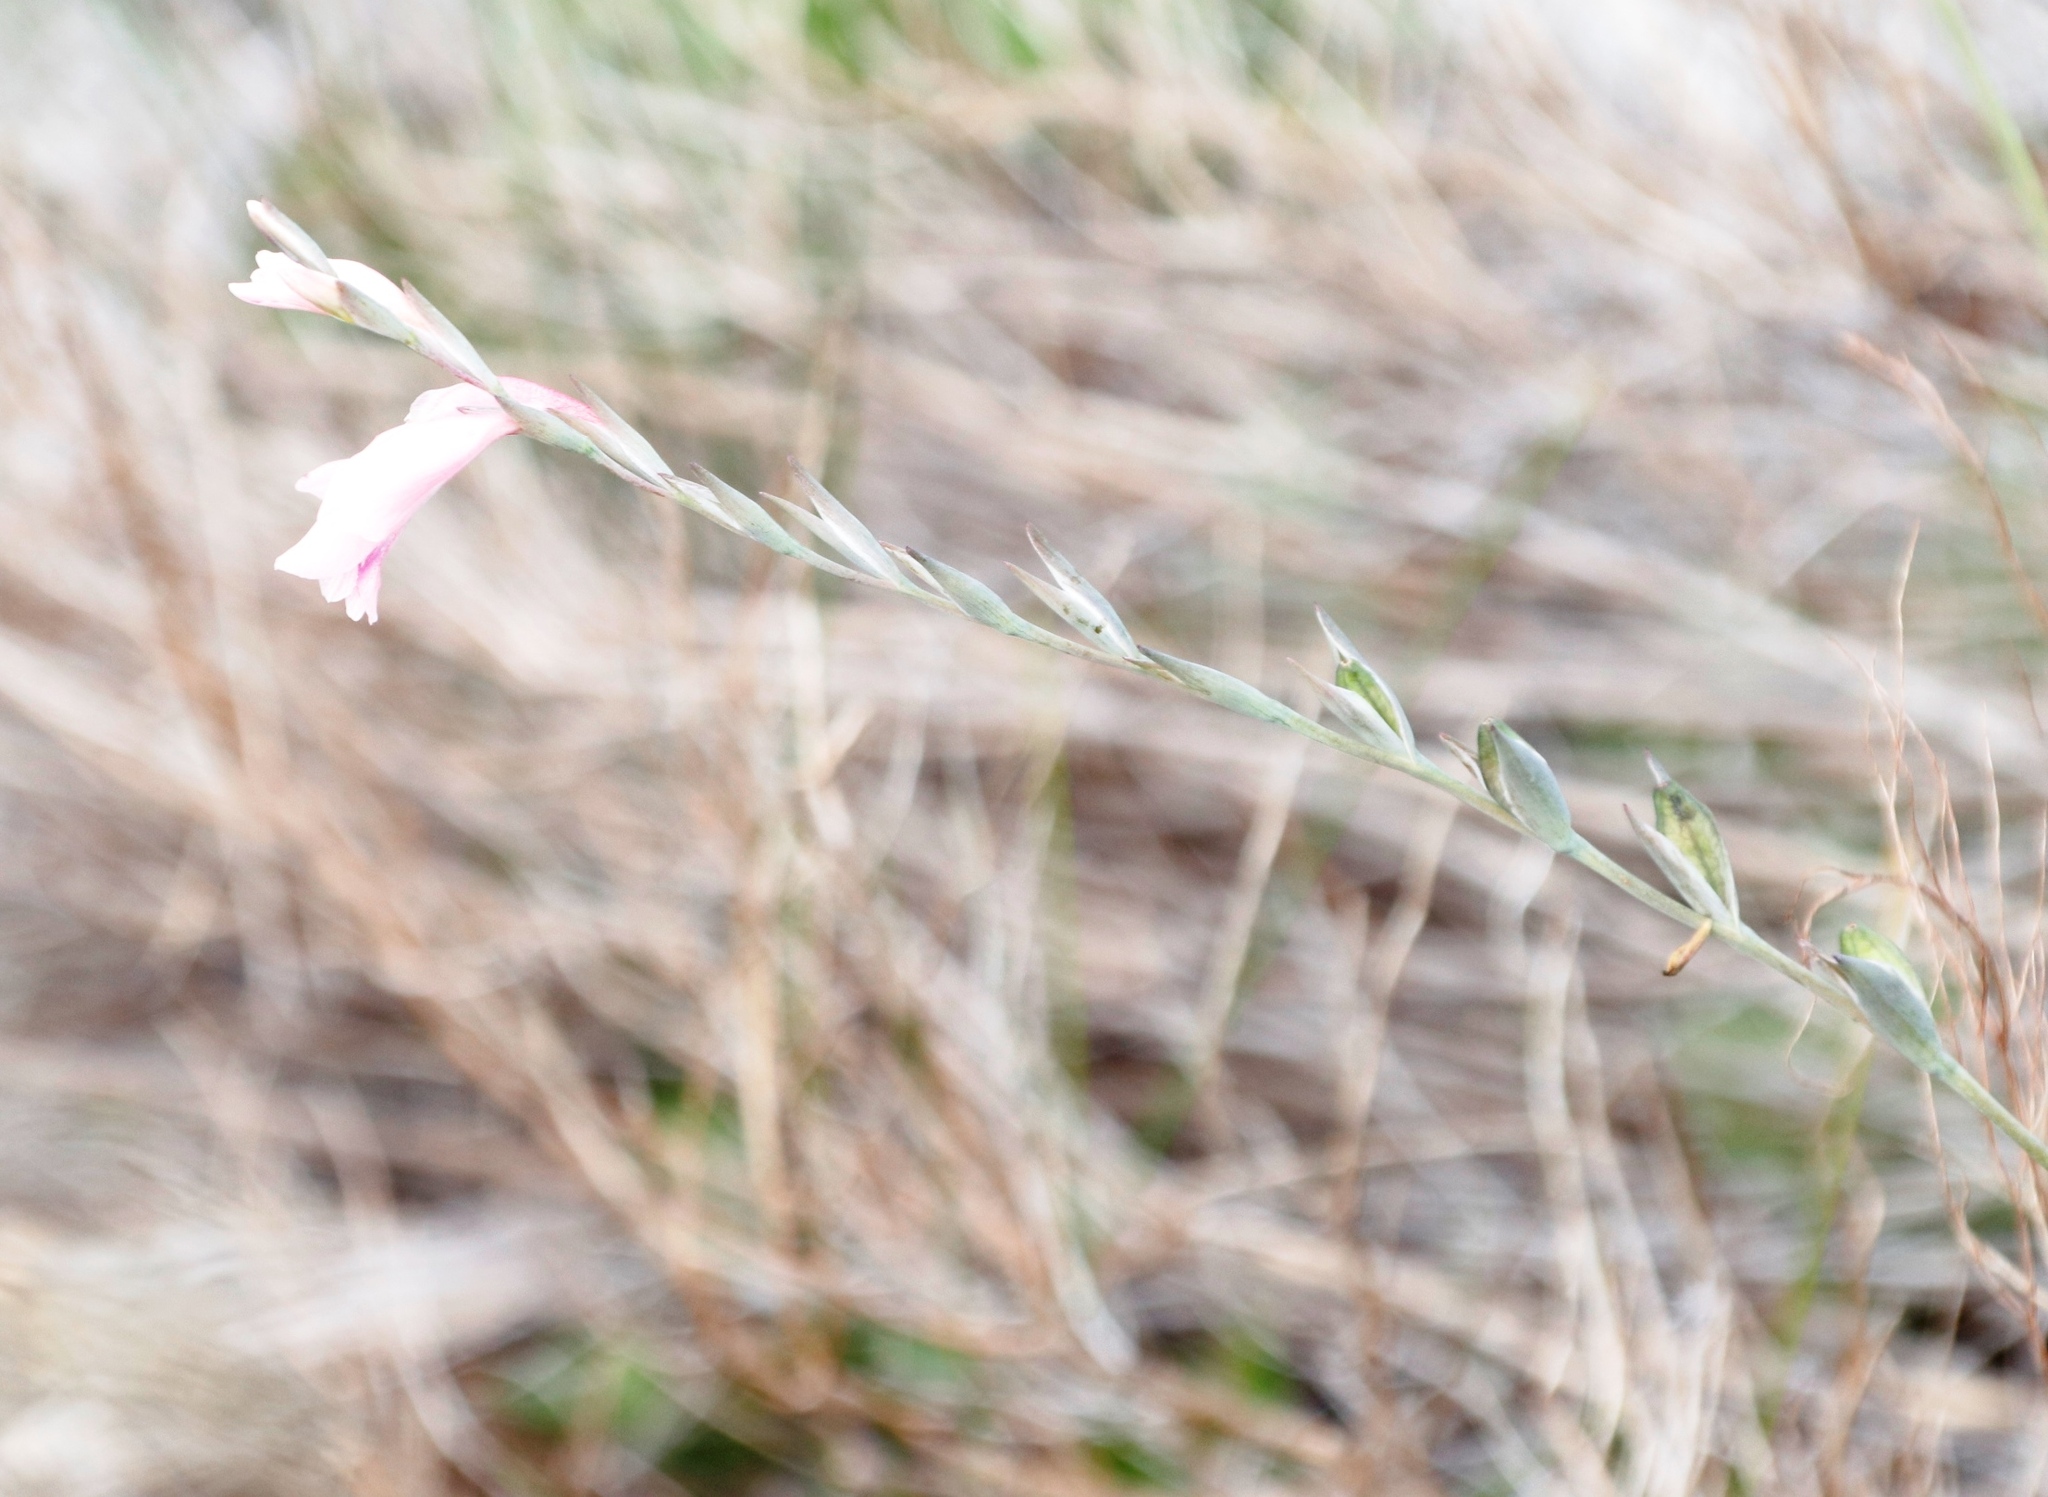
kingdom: Plantae
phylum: Tracheophyta
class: Liliopsida
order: Asparagales
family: Iridaceae
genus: Gladiolus
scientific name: Gladiolus brevifolius
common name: March pypie
